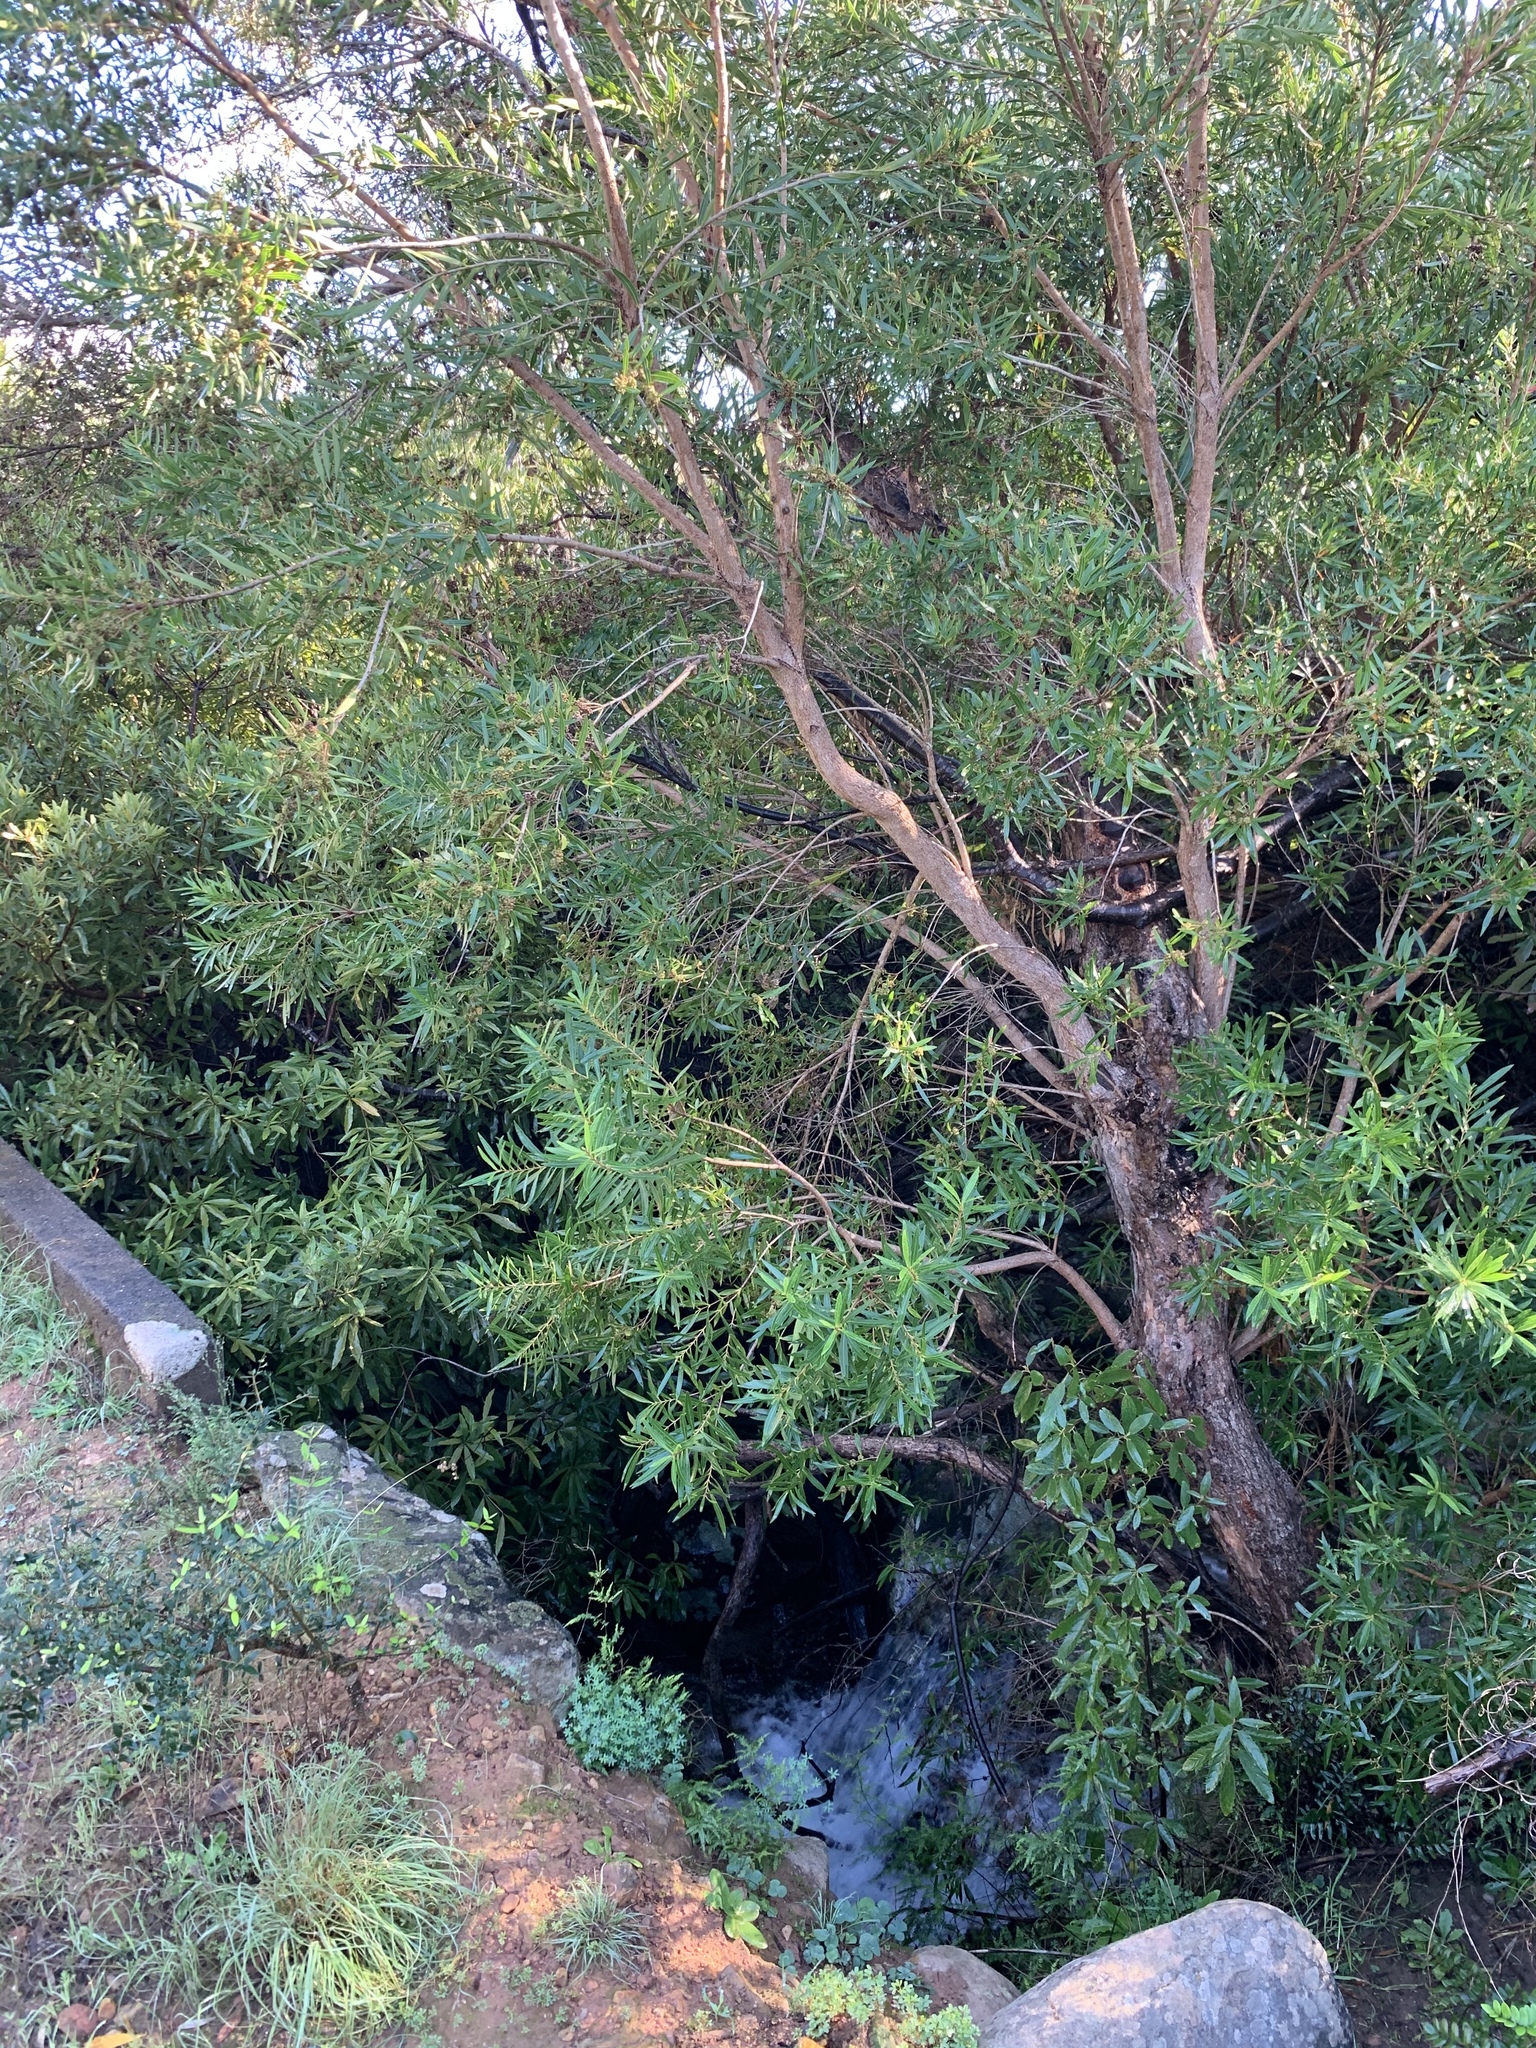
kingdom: Plantae
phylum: Tracheophyta
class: Magnoliopsida
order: Myrtales
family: Myrtaceae
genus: Callistemon
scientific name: Callistemon lanceolatus
